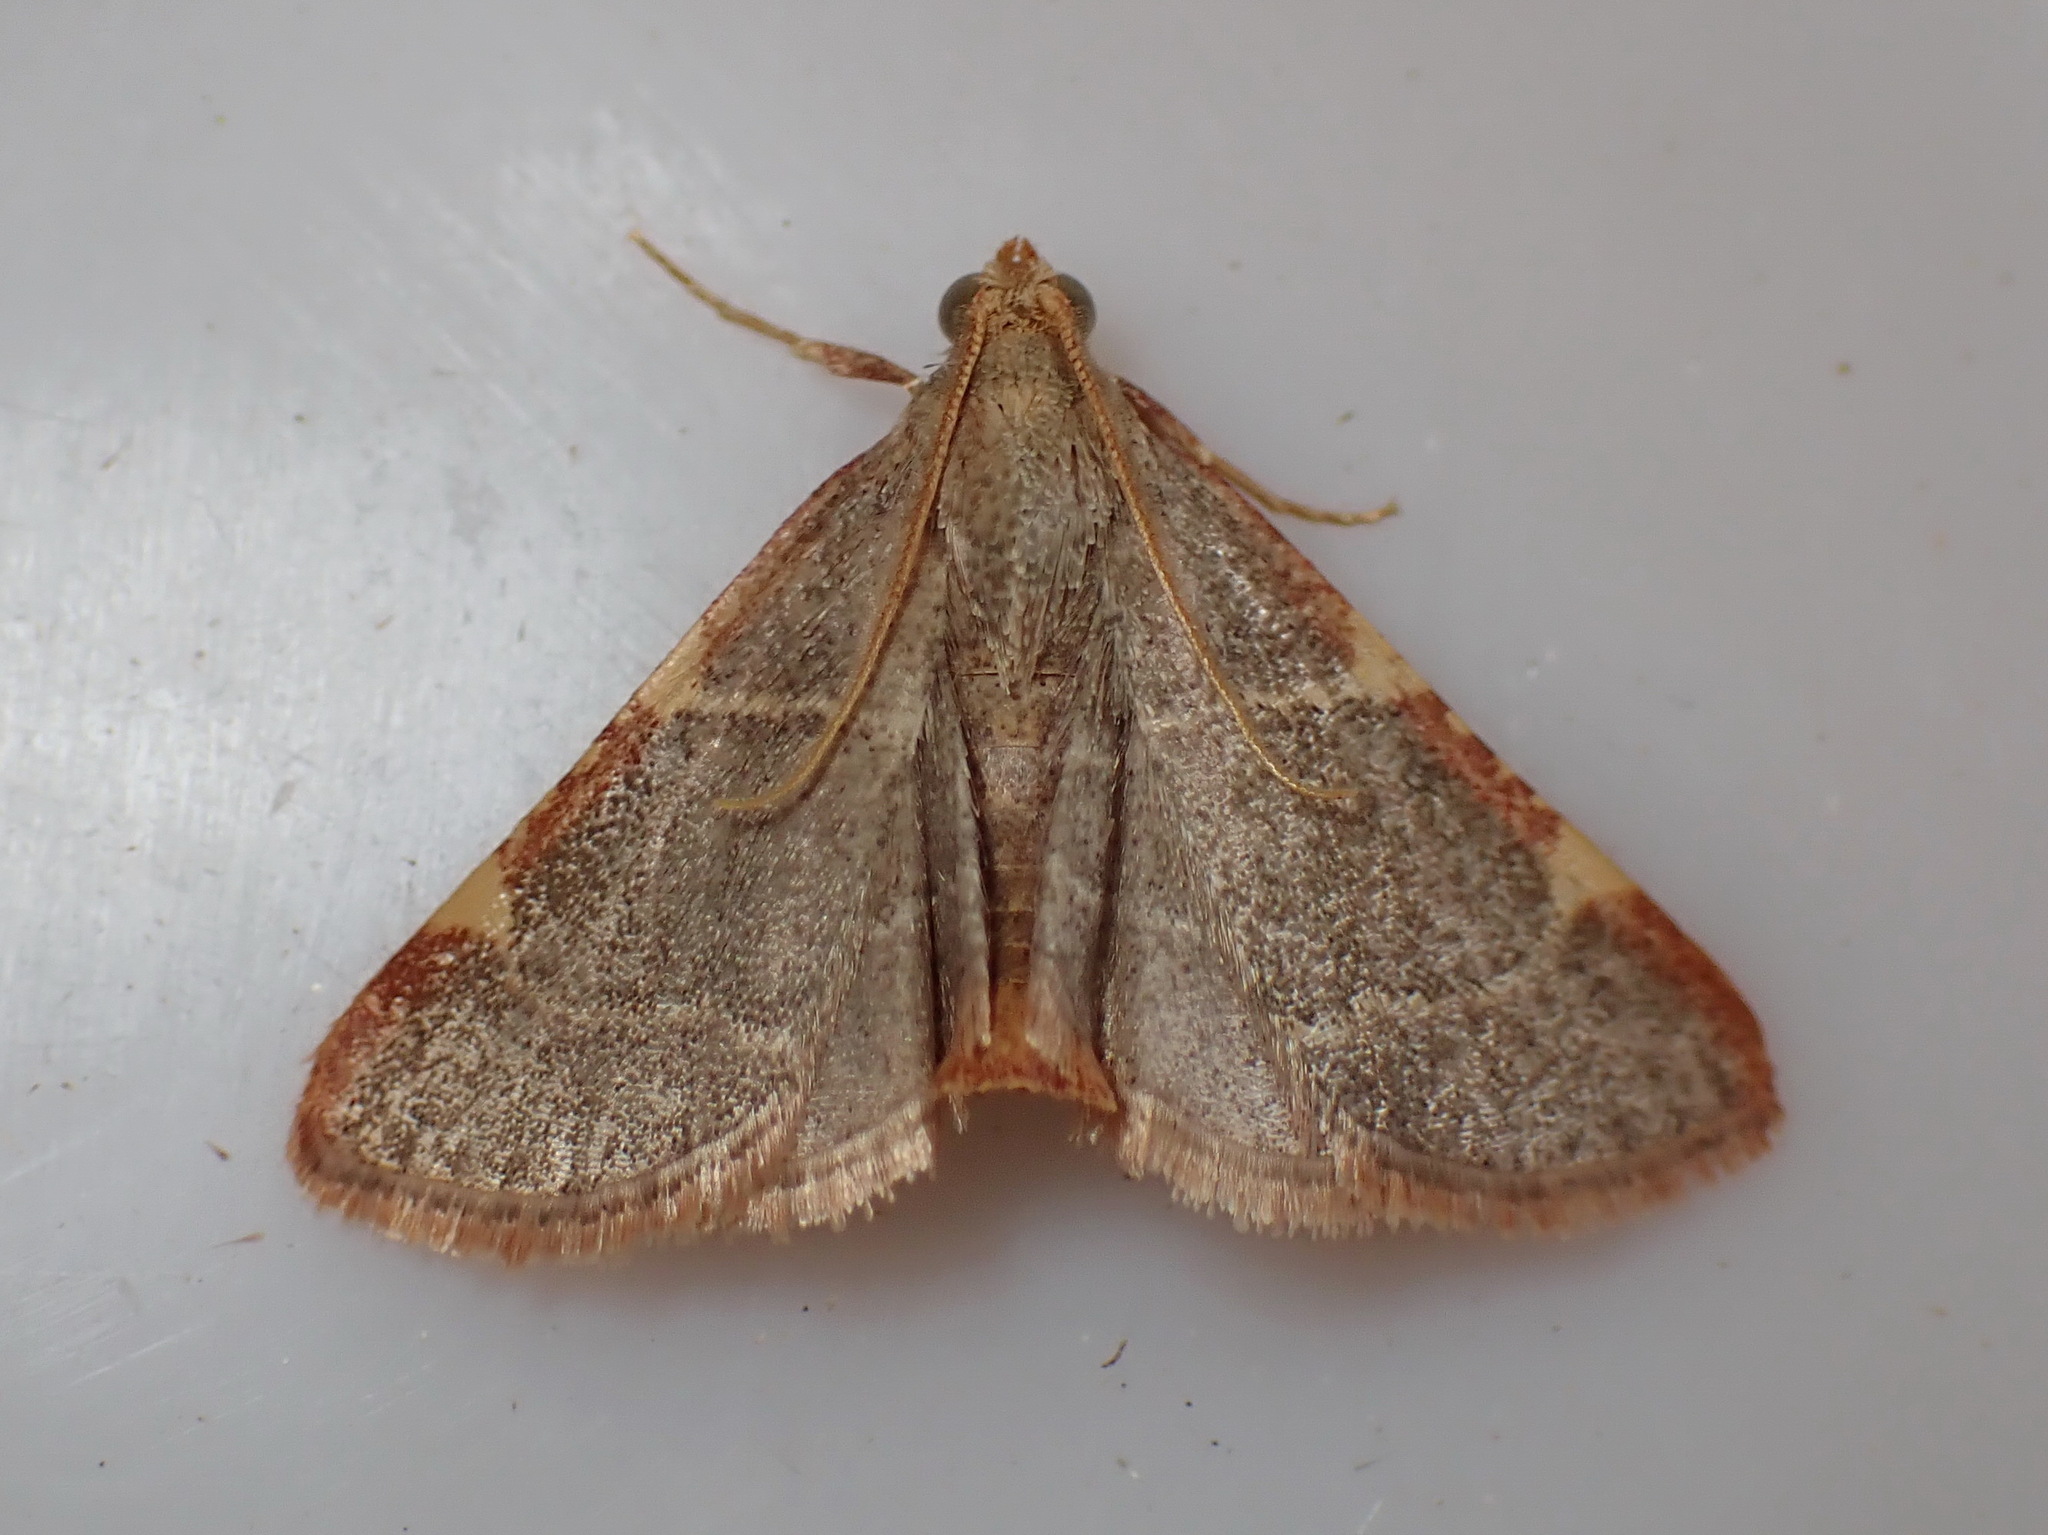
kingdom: Animalia
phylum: Arthropoda
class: Insecta
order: Lepidoptera
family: Pyralidae
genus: Hypsopygia
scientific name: Hypsopygia binodulalis
